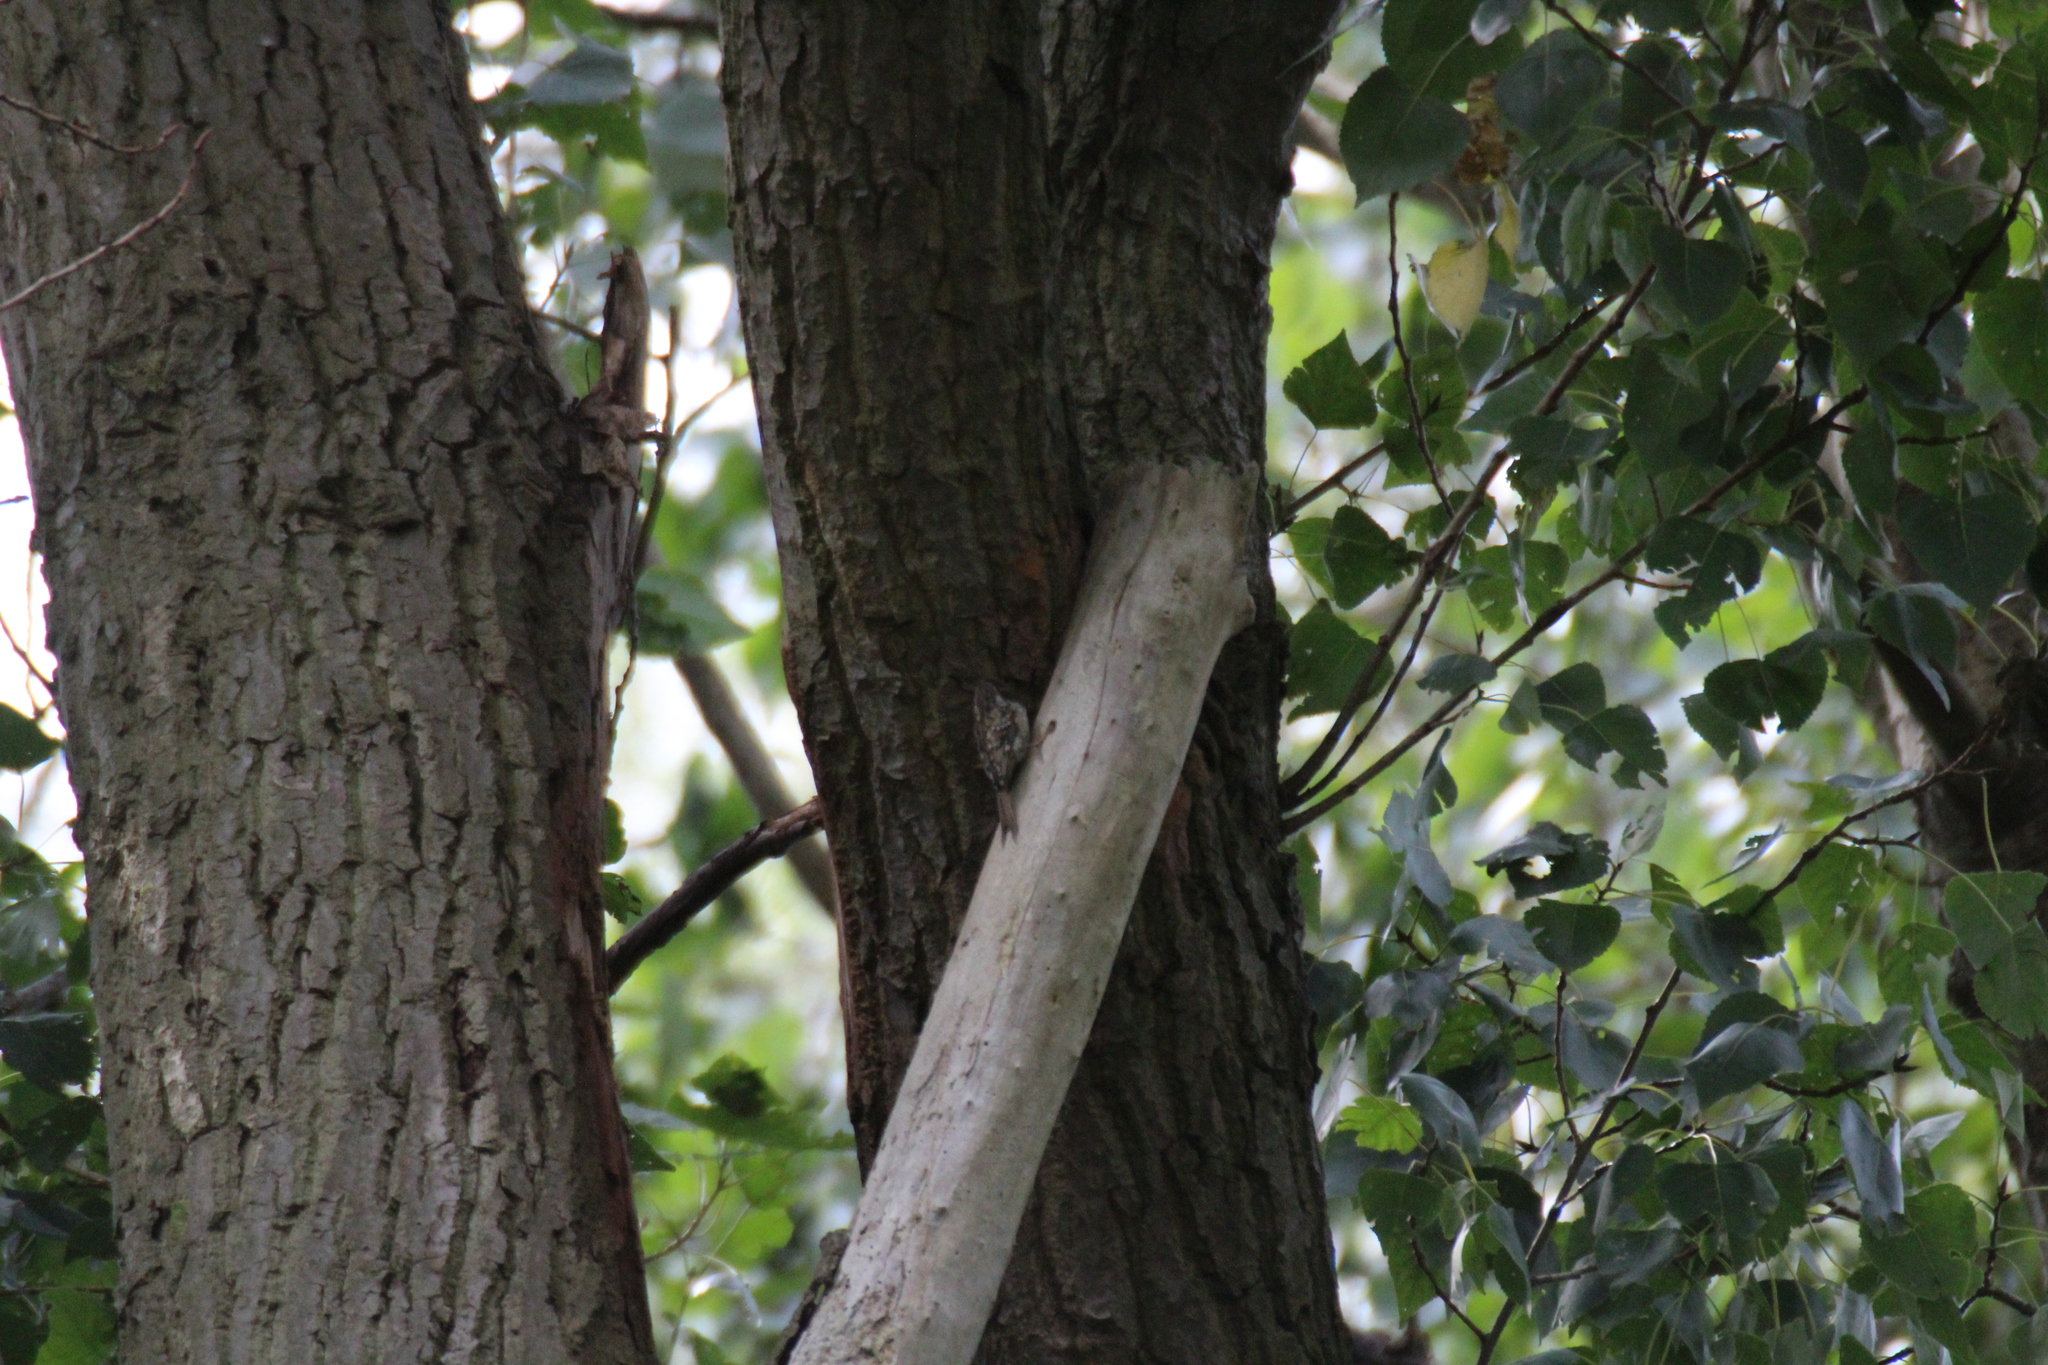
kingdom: Animalia
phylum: Chordata
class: Aves
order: Passeriformes
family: Certhiidae
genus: Certhia
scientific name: Certhia
